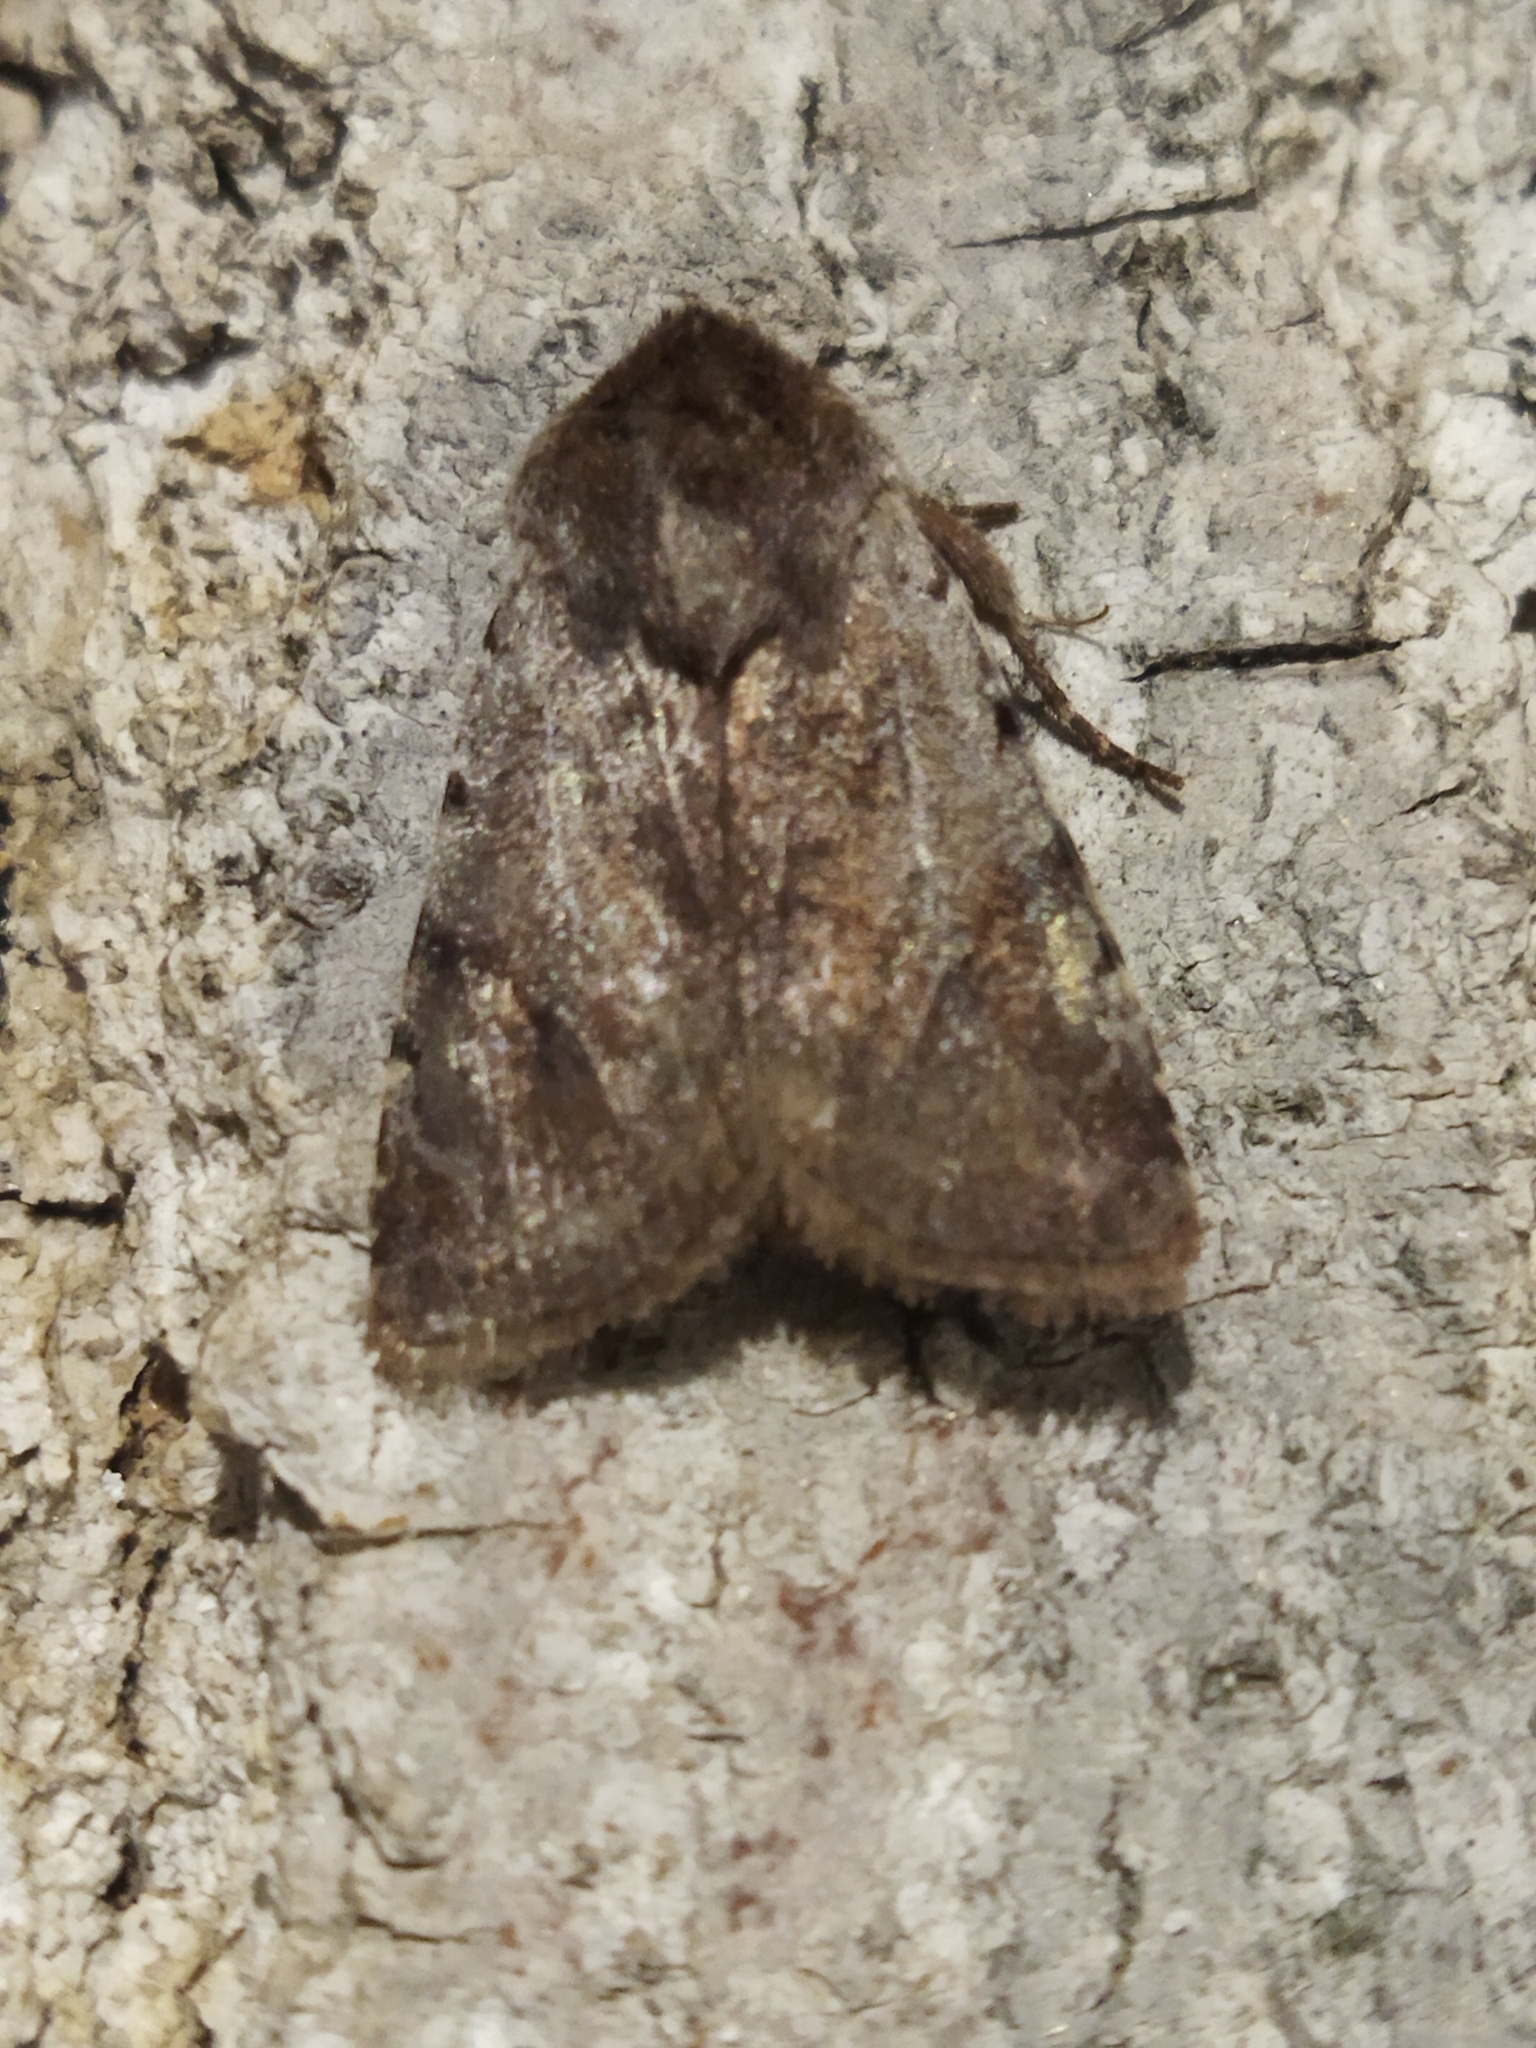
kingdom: Animalia
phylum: Arthropoda
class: Insecta
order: Lepidoptera
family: Noctuidae
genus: Cerastis
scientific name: Cerastis rubricosa
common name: Red chestnut
